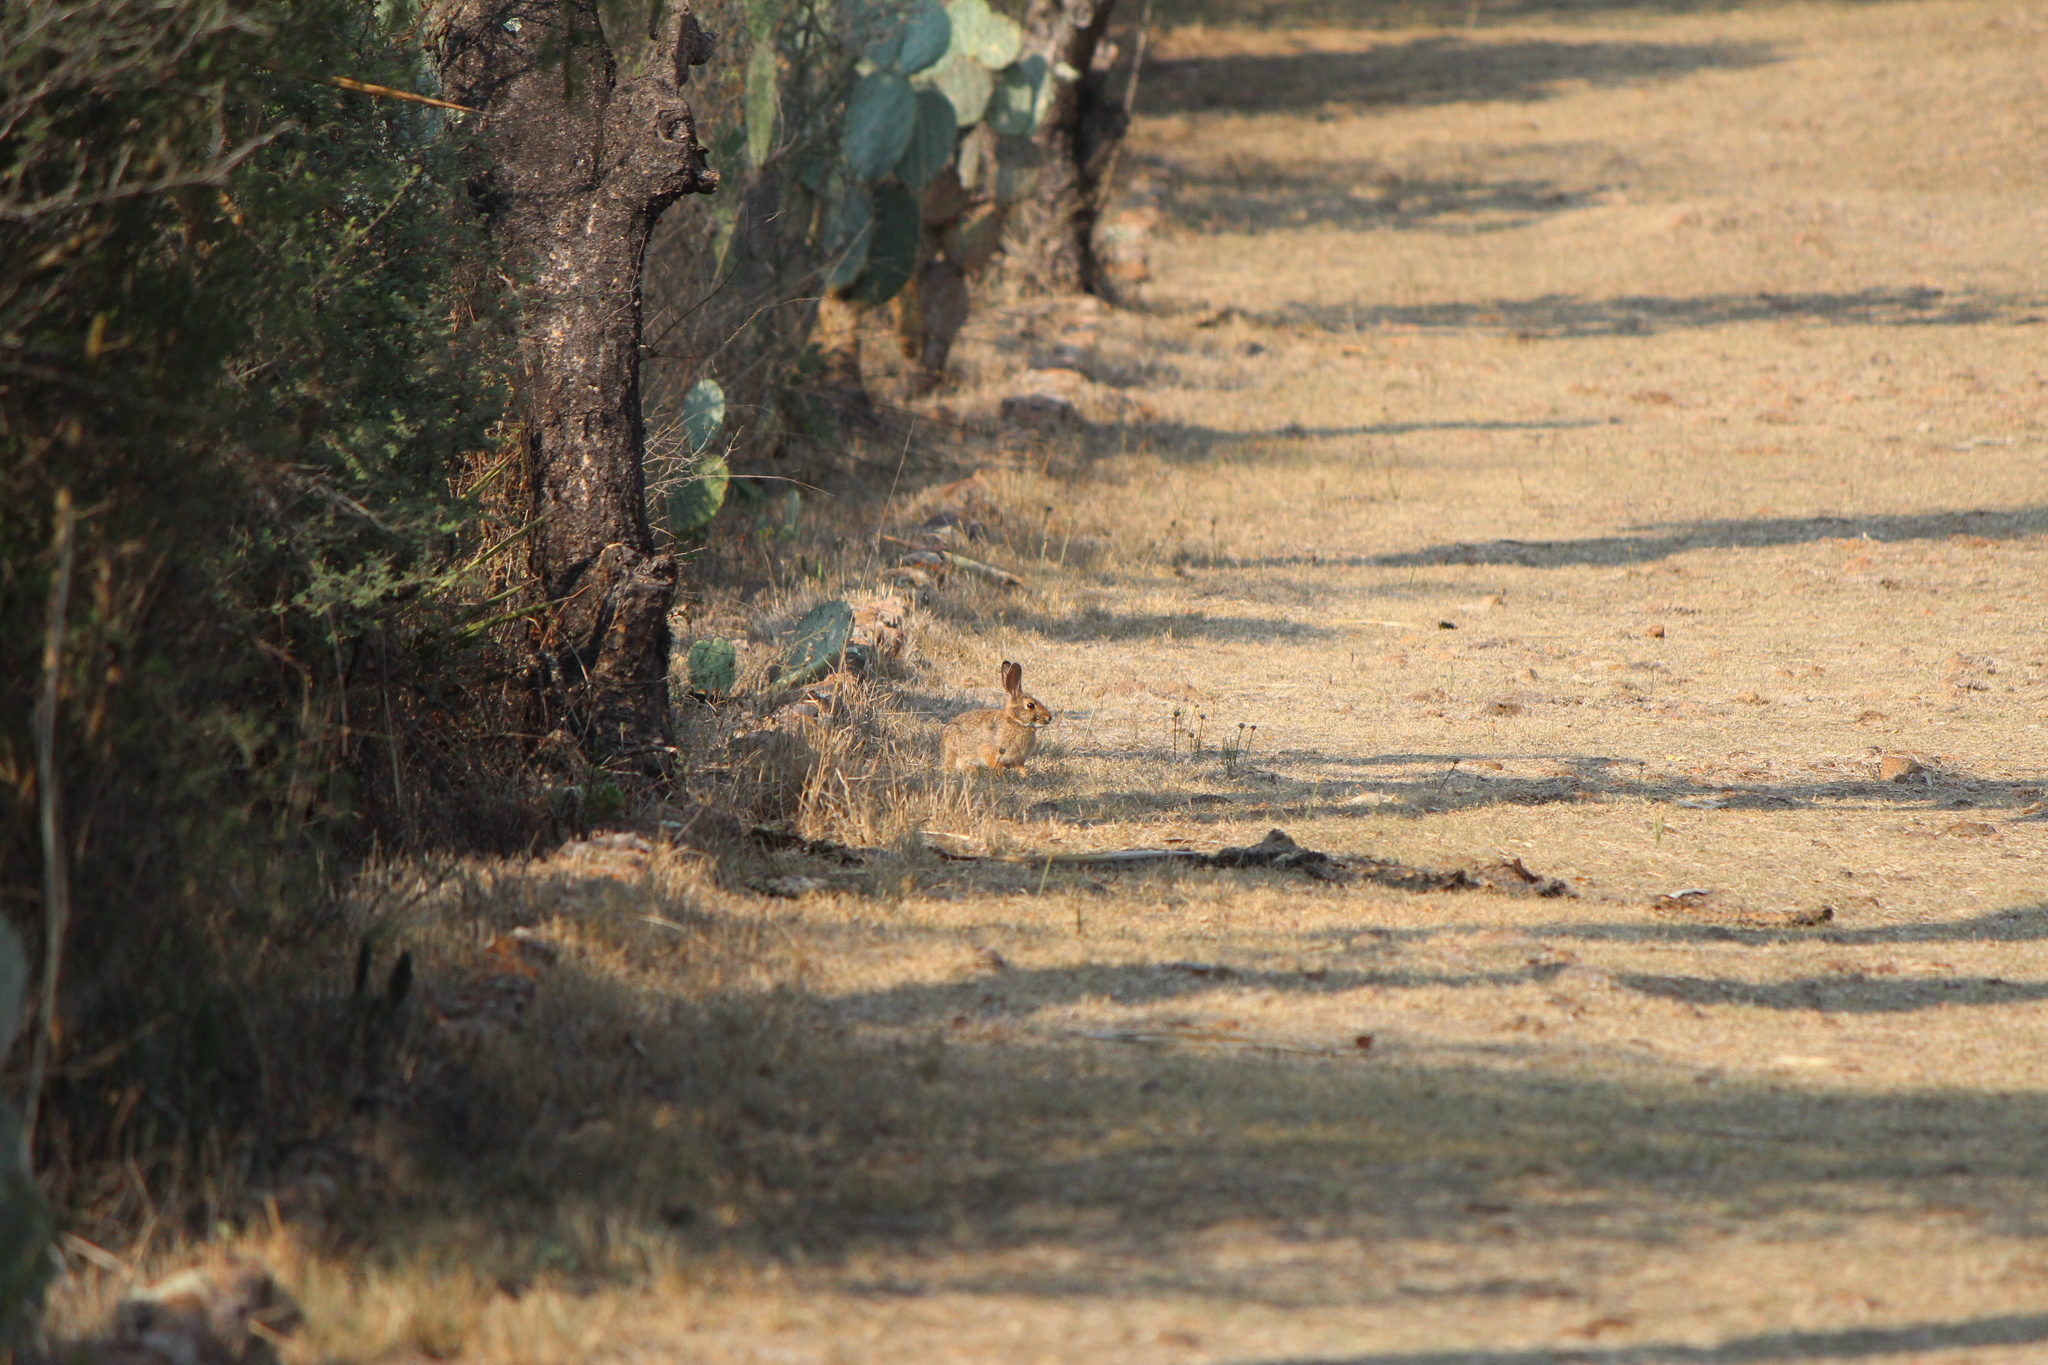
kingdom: Animalia
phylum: Chordata
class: Mammalia
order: Lagomorpha
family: Leporidae
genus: Sylvilagus
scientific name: Sylvilagus audubonii
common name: Desert cottontail
